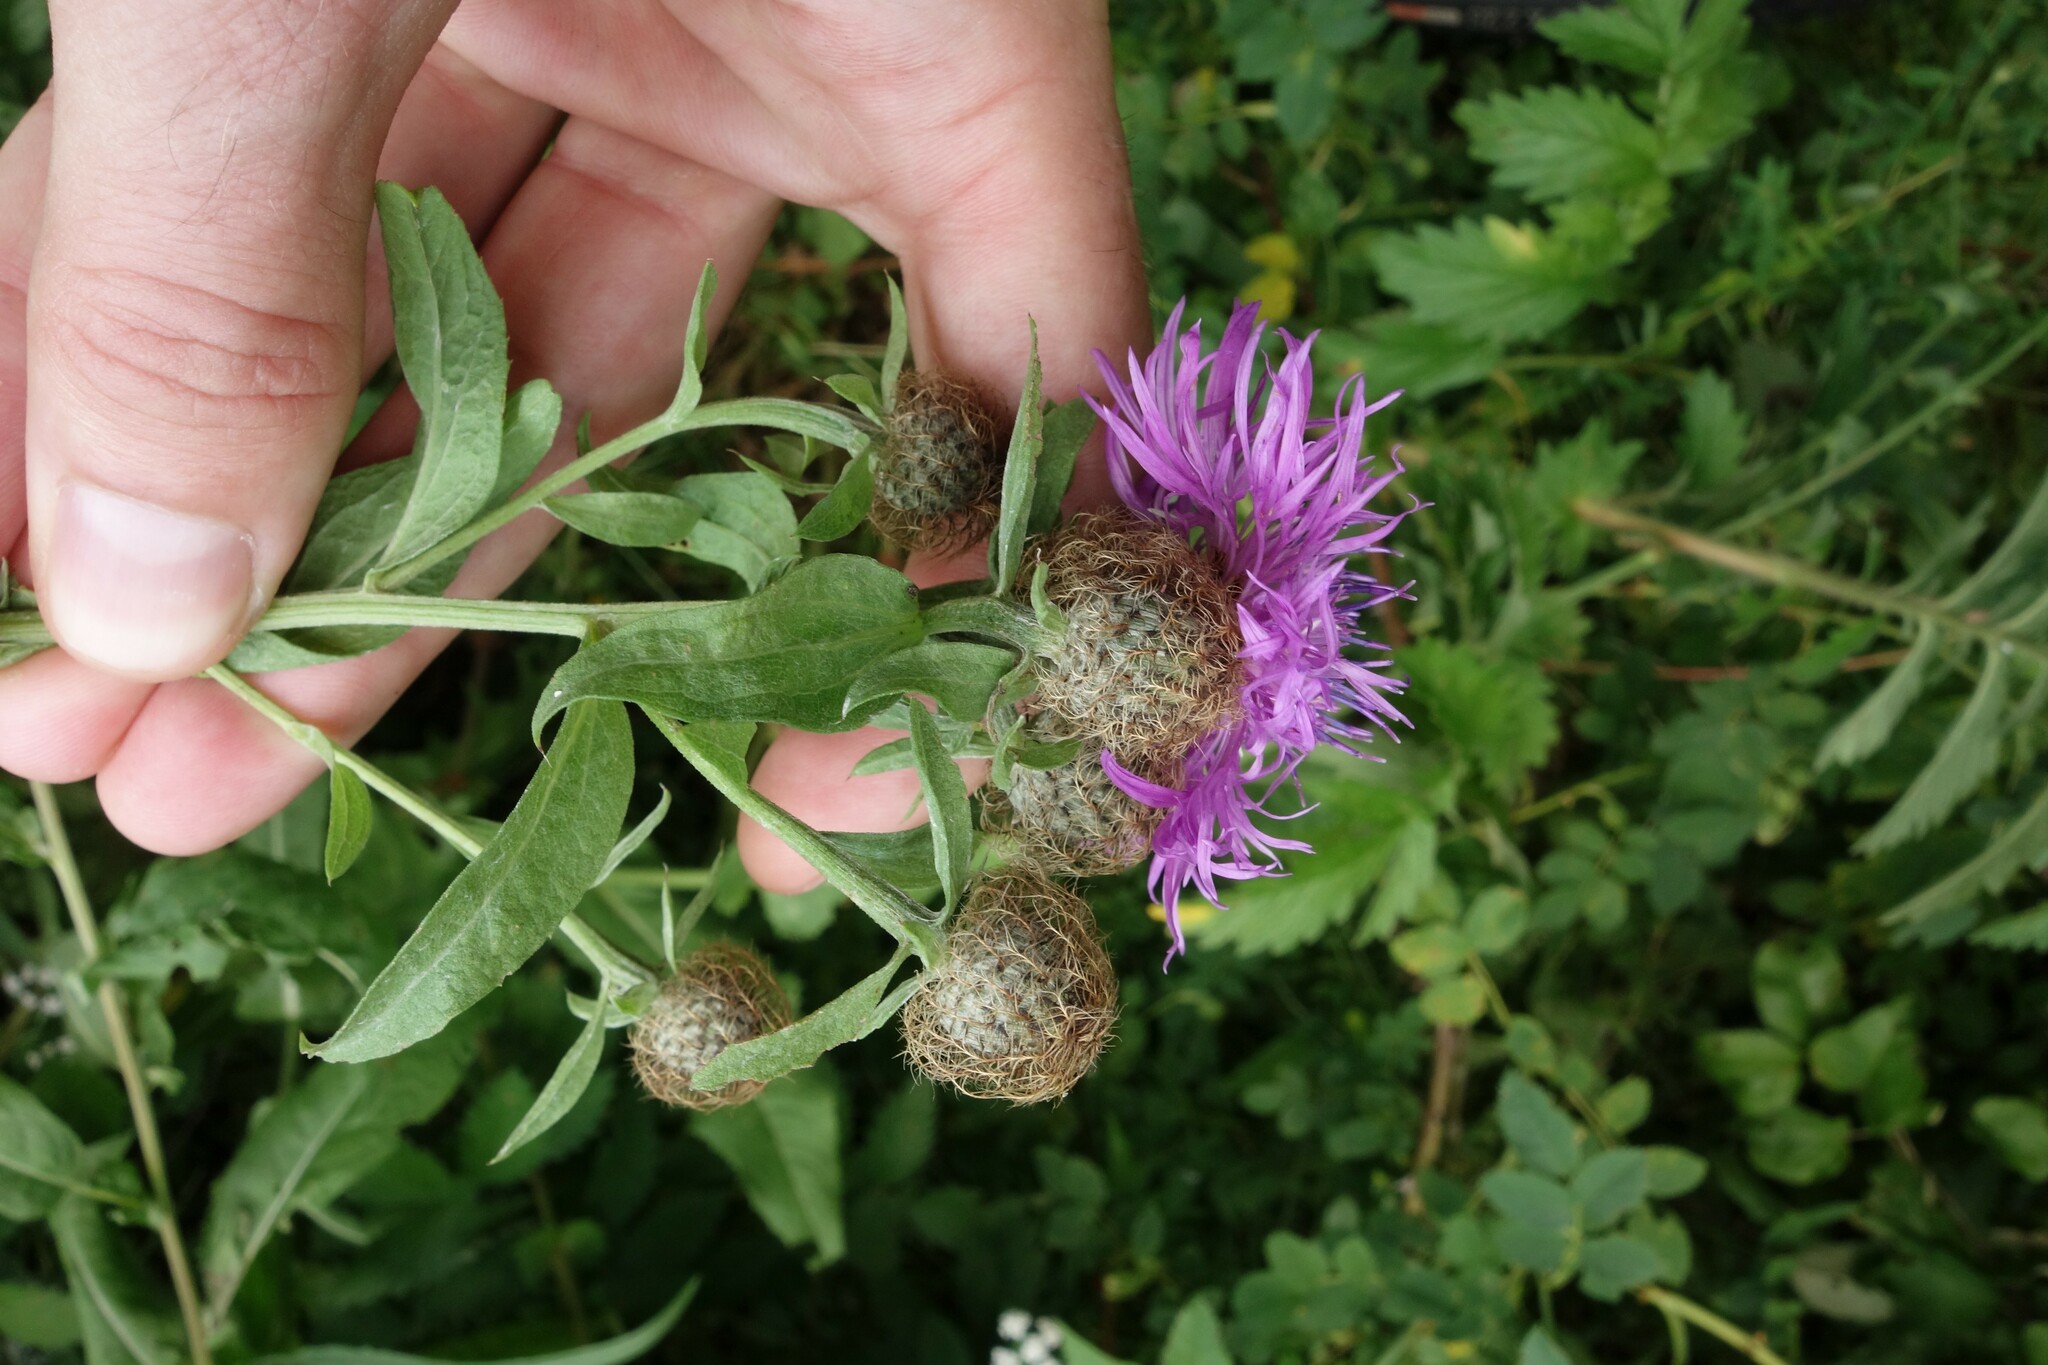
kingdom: Plantae
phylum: Tracheophyta
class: Magnoliopsida
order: Asterales
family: Asteraceae
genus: Centaurea
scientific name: Centaurea pseudophrygia
